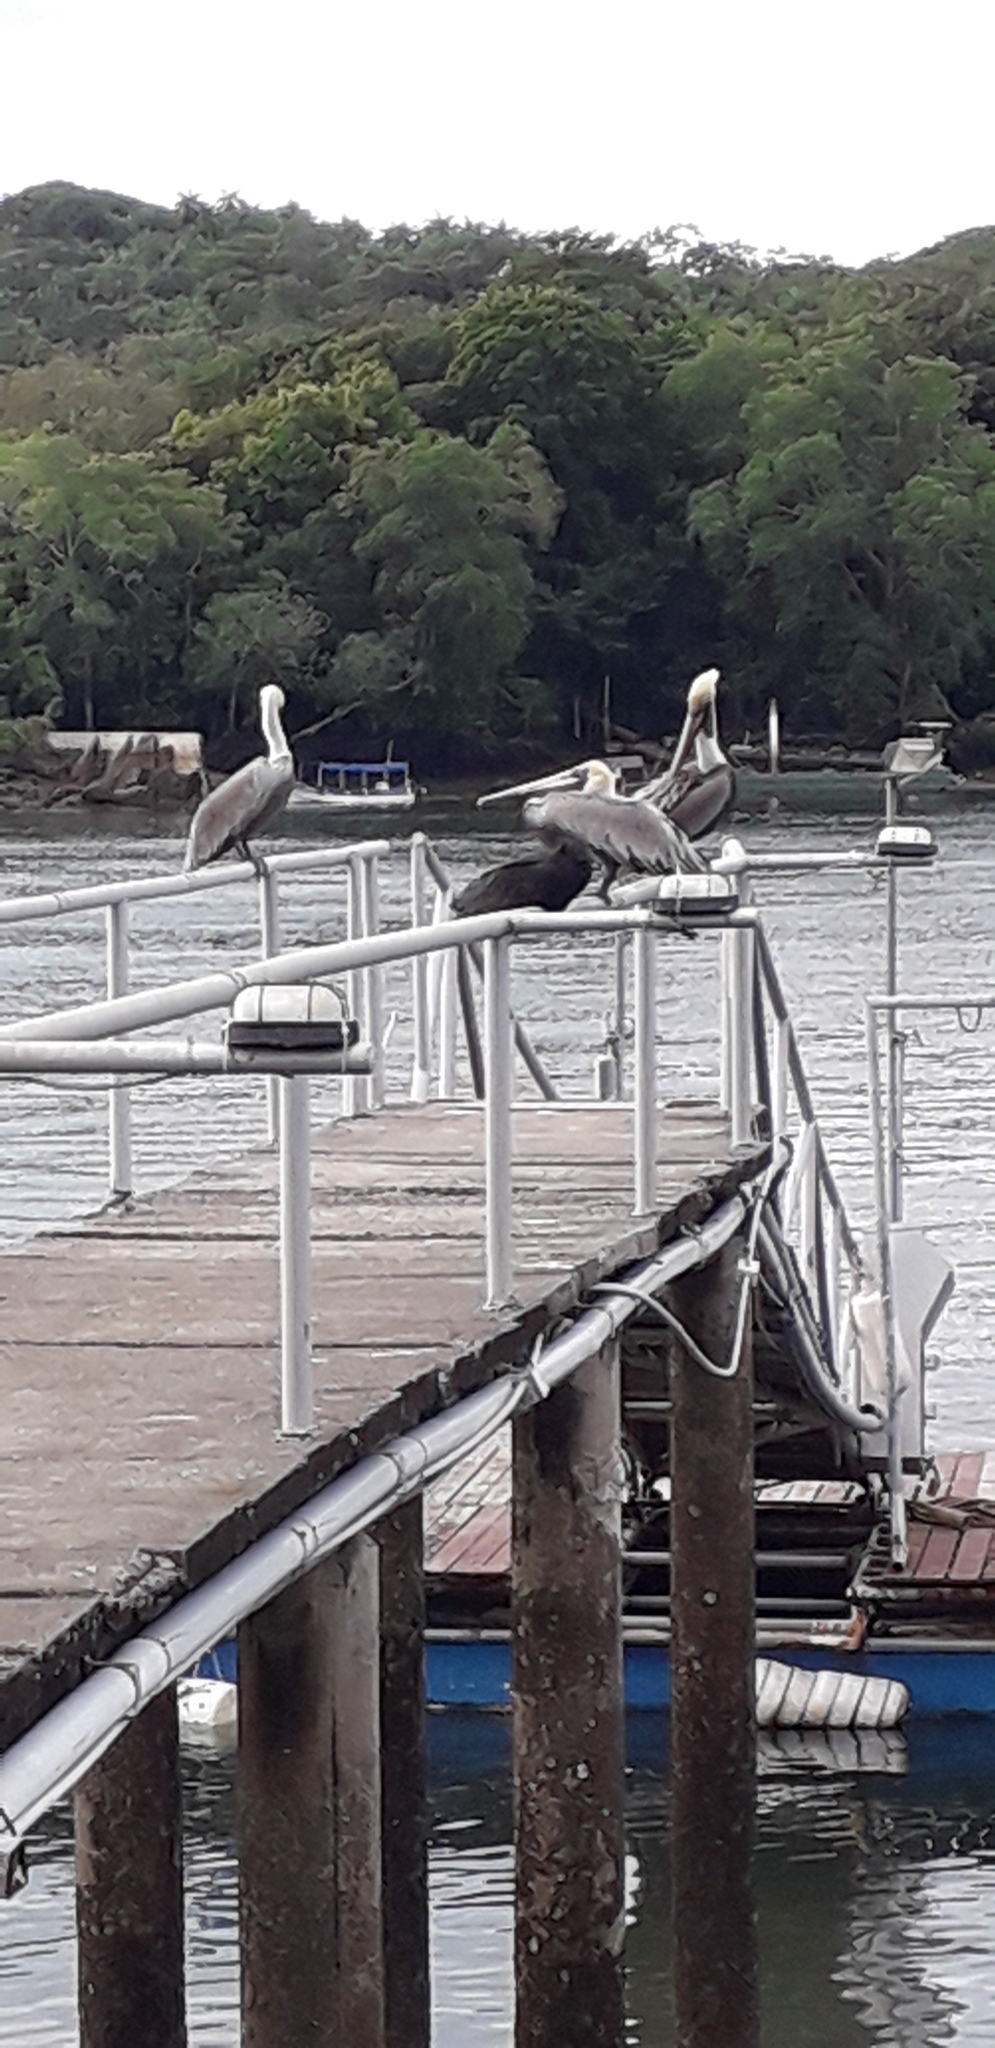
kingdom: Animalia
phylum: Chordata
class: Aves
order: Pelecaniformes
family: Pelecanidae
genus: Pelecanus
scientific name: Pelecanus occidentalis
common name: Brown pelican
